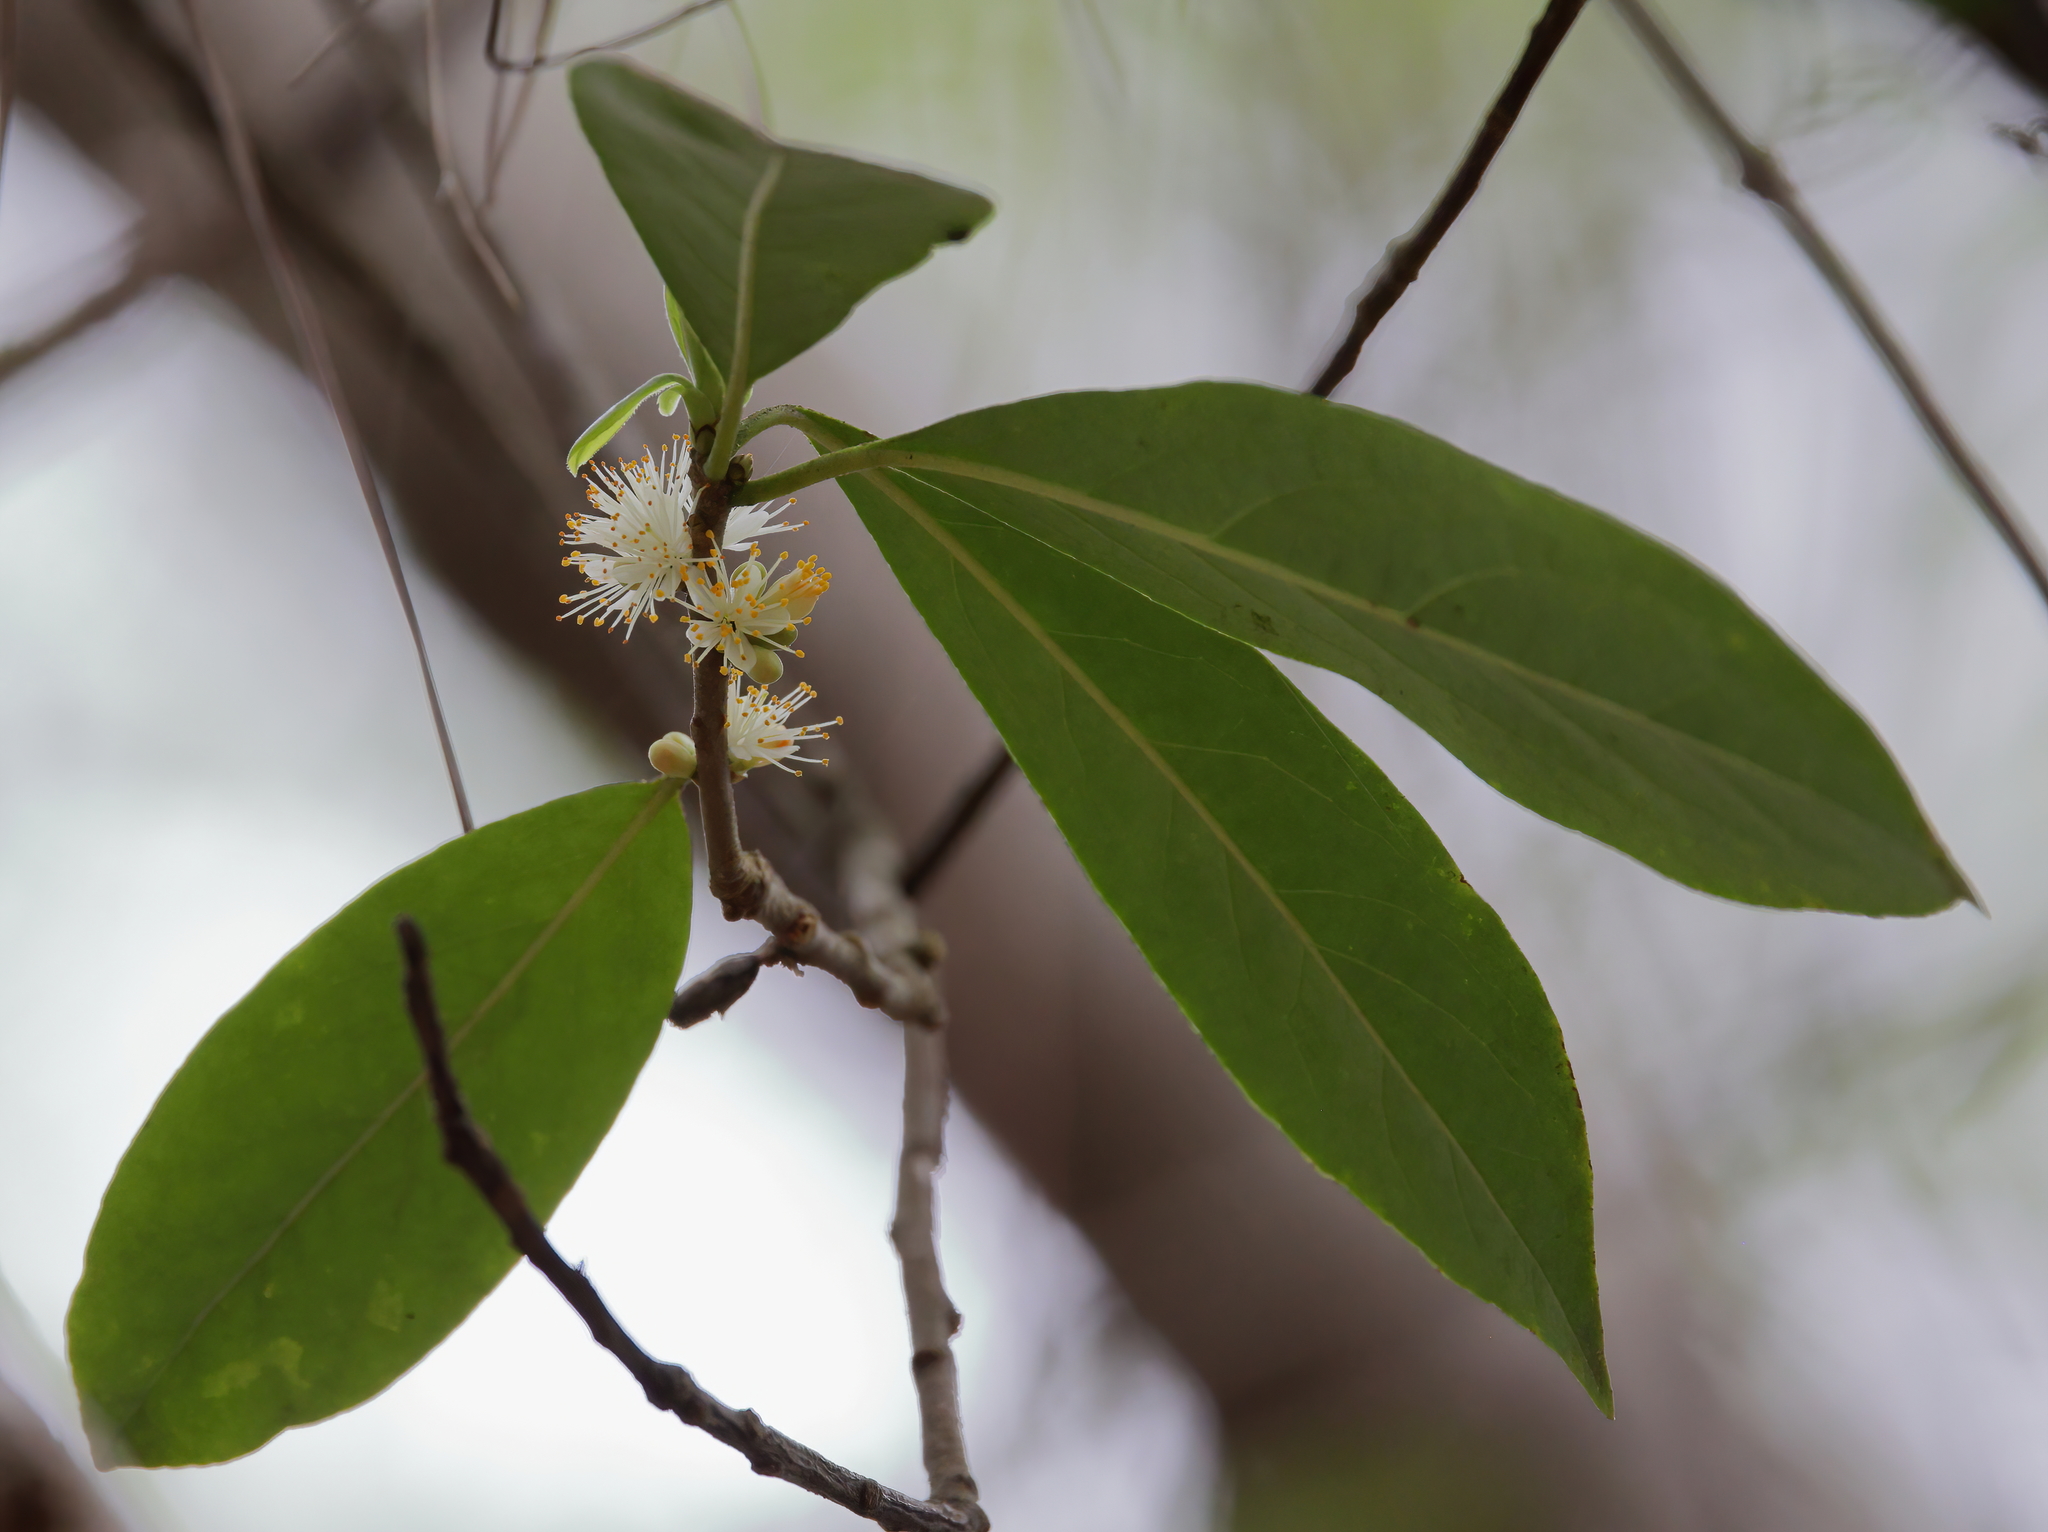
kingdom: Plantae
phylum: Tracheophyta
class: Magnoliopsida
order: Ericales
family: Symplocaceae
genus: Symplocos
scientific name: Symplocos tinctoria
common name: Horse-sugar
